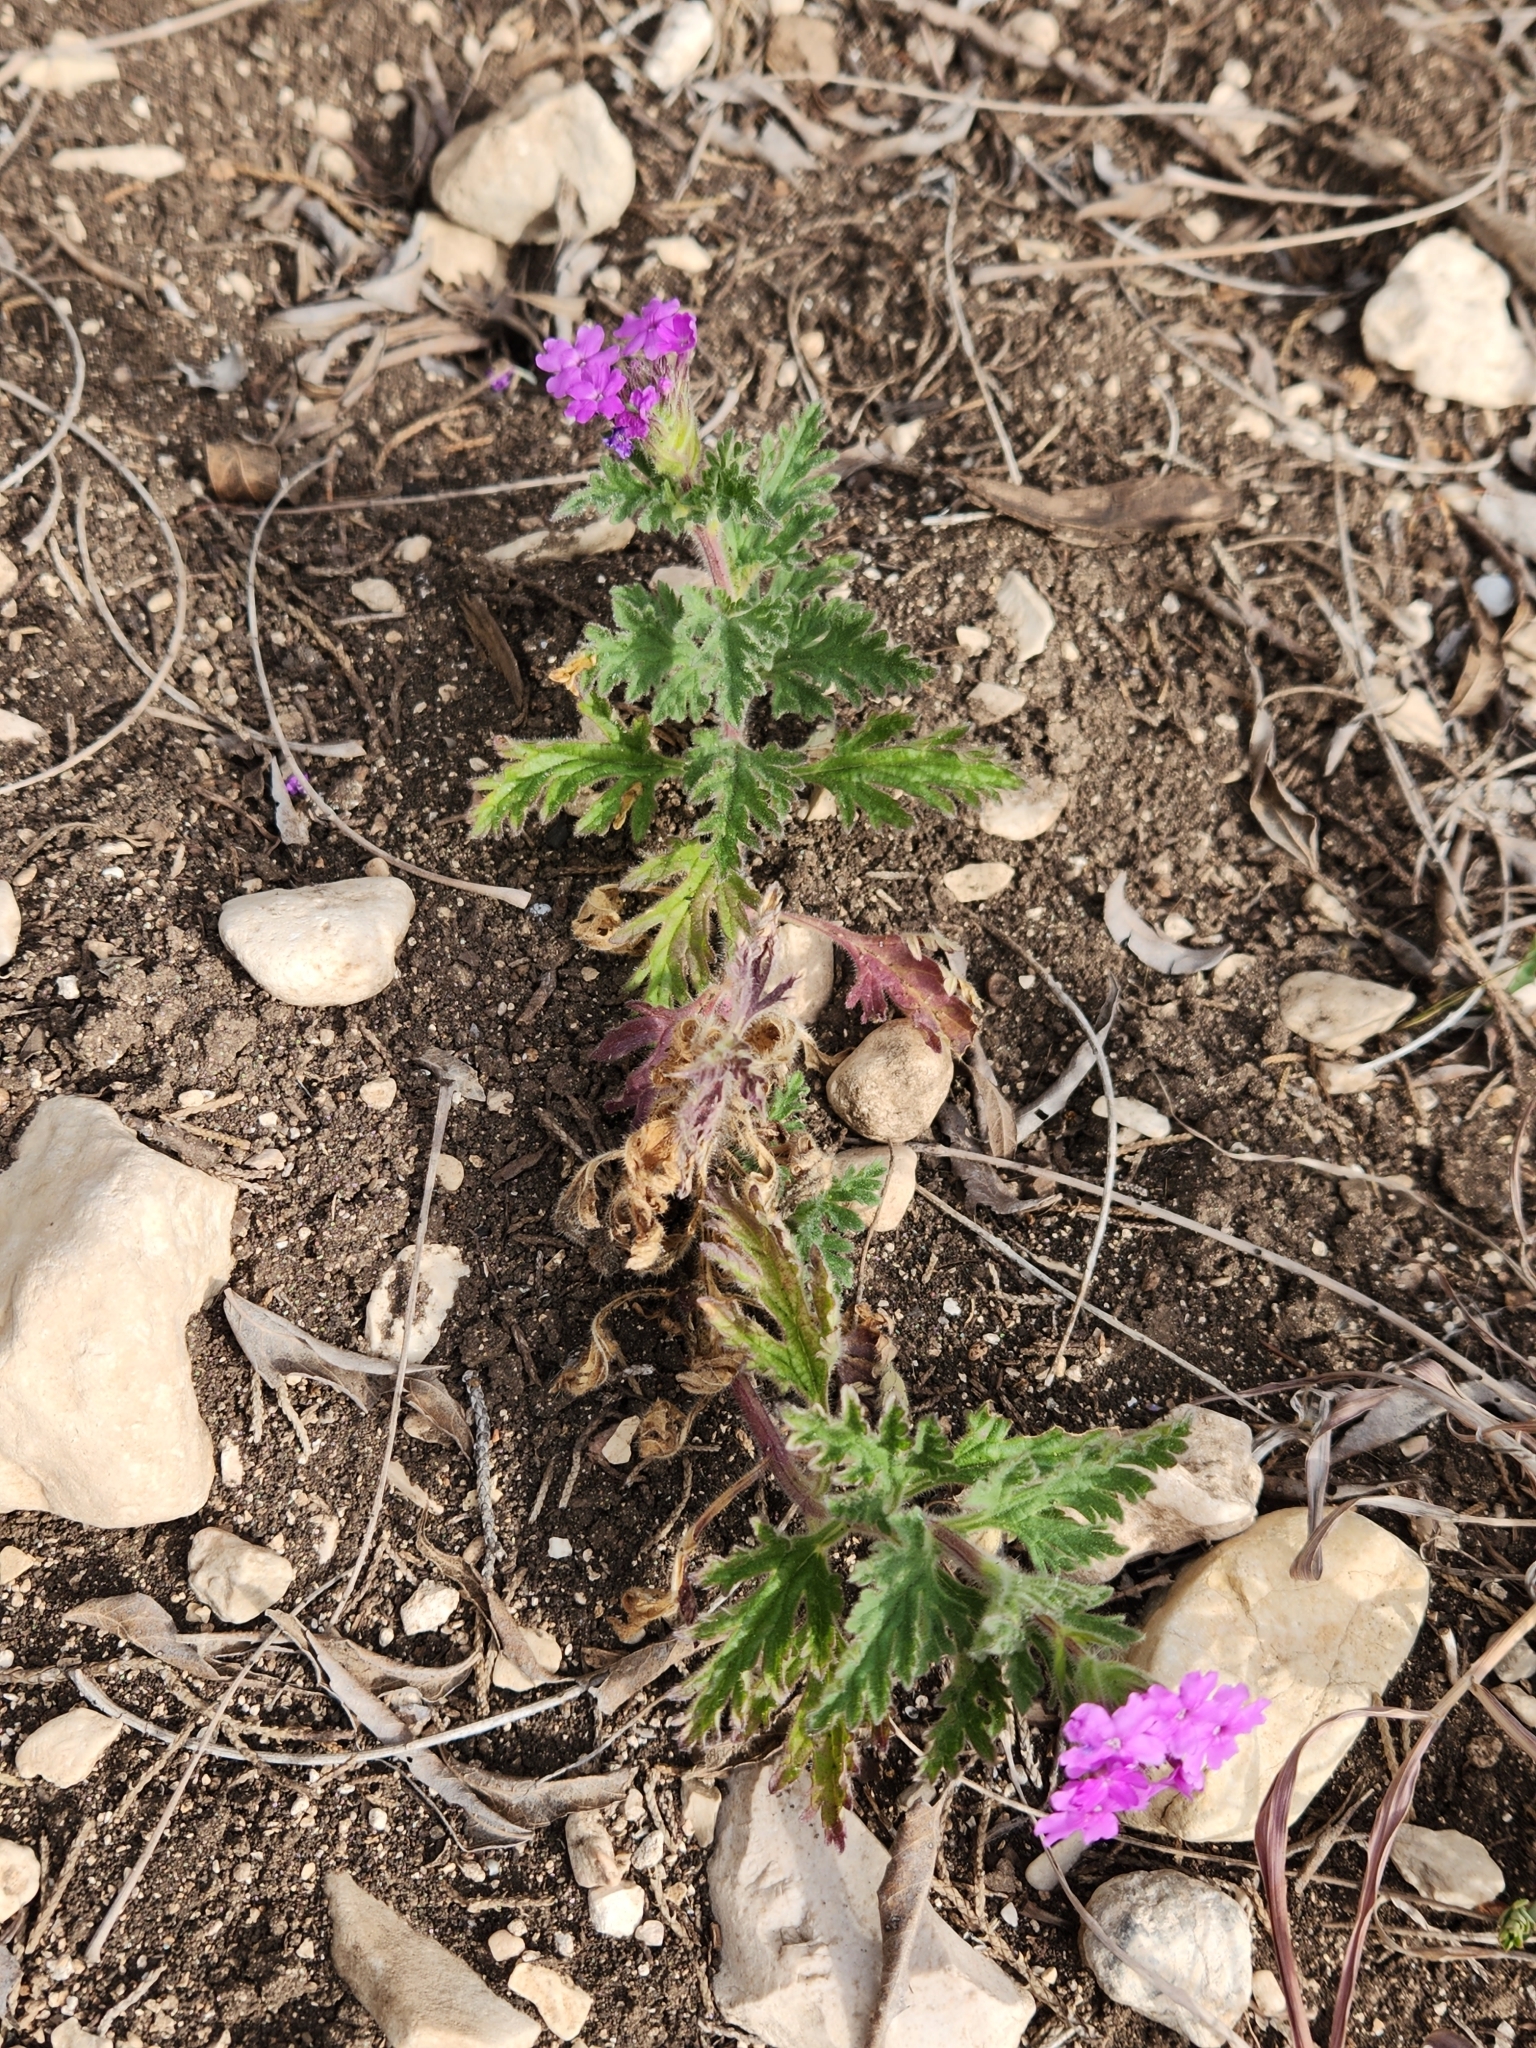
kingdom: Plantae
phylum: Tracheophyta
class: Magnoliopsida
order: Lamiales
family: Verbenaceae
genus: Verbena
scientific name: Verbena tumidula
